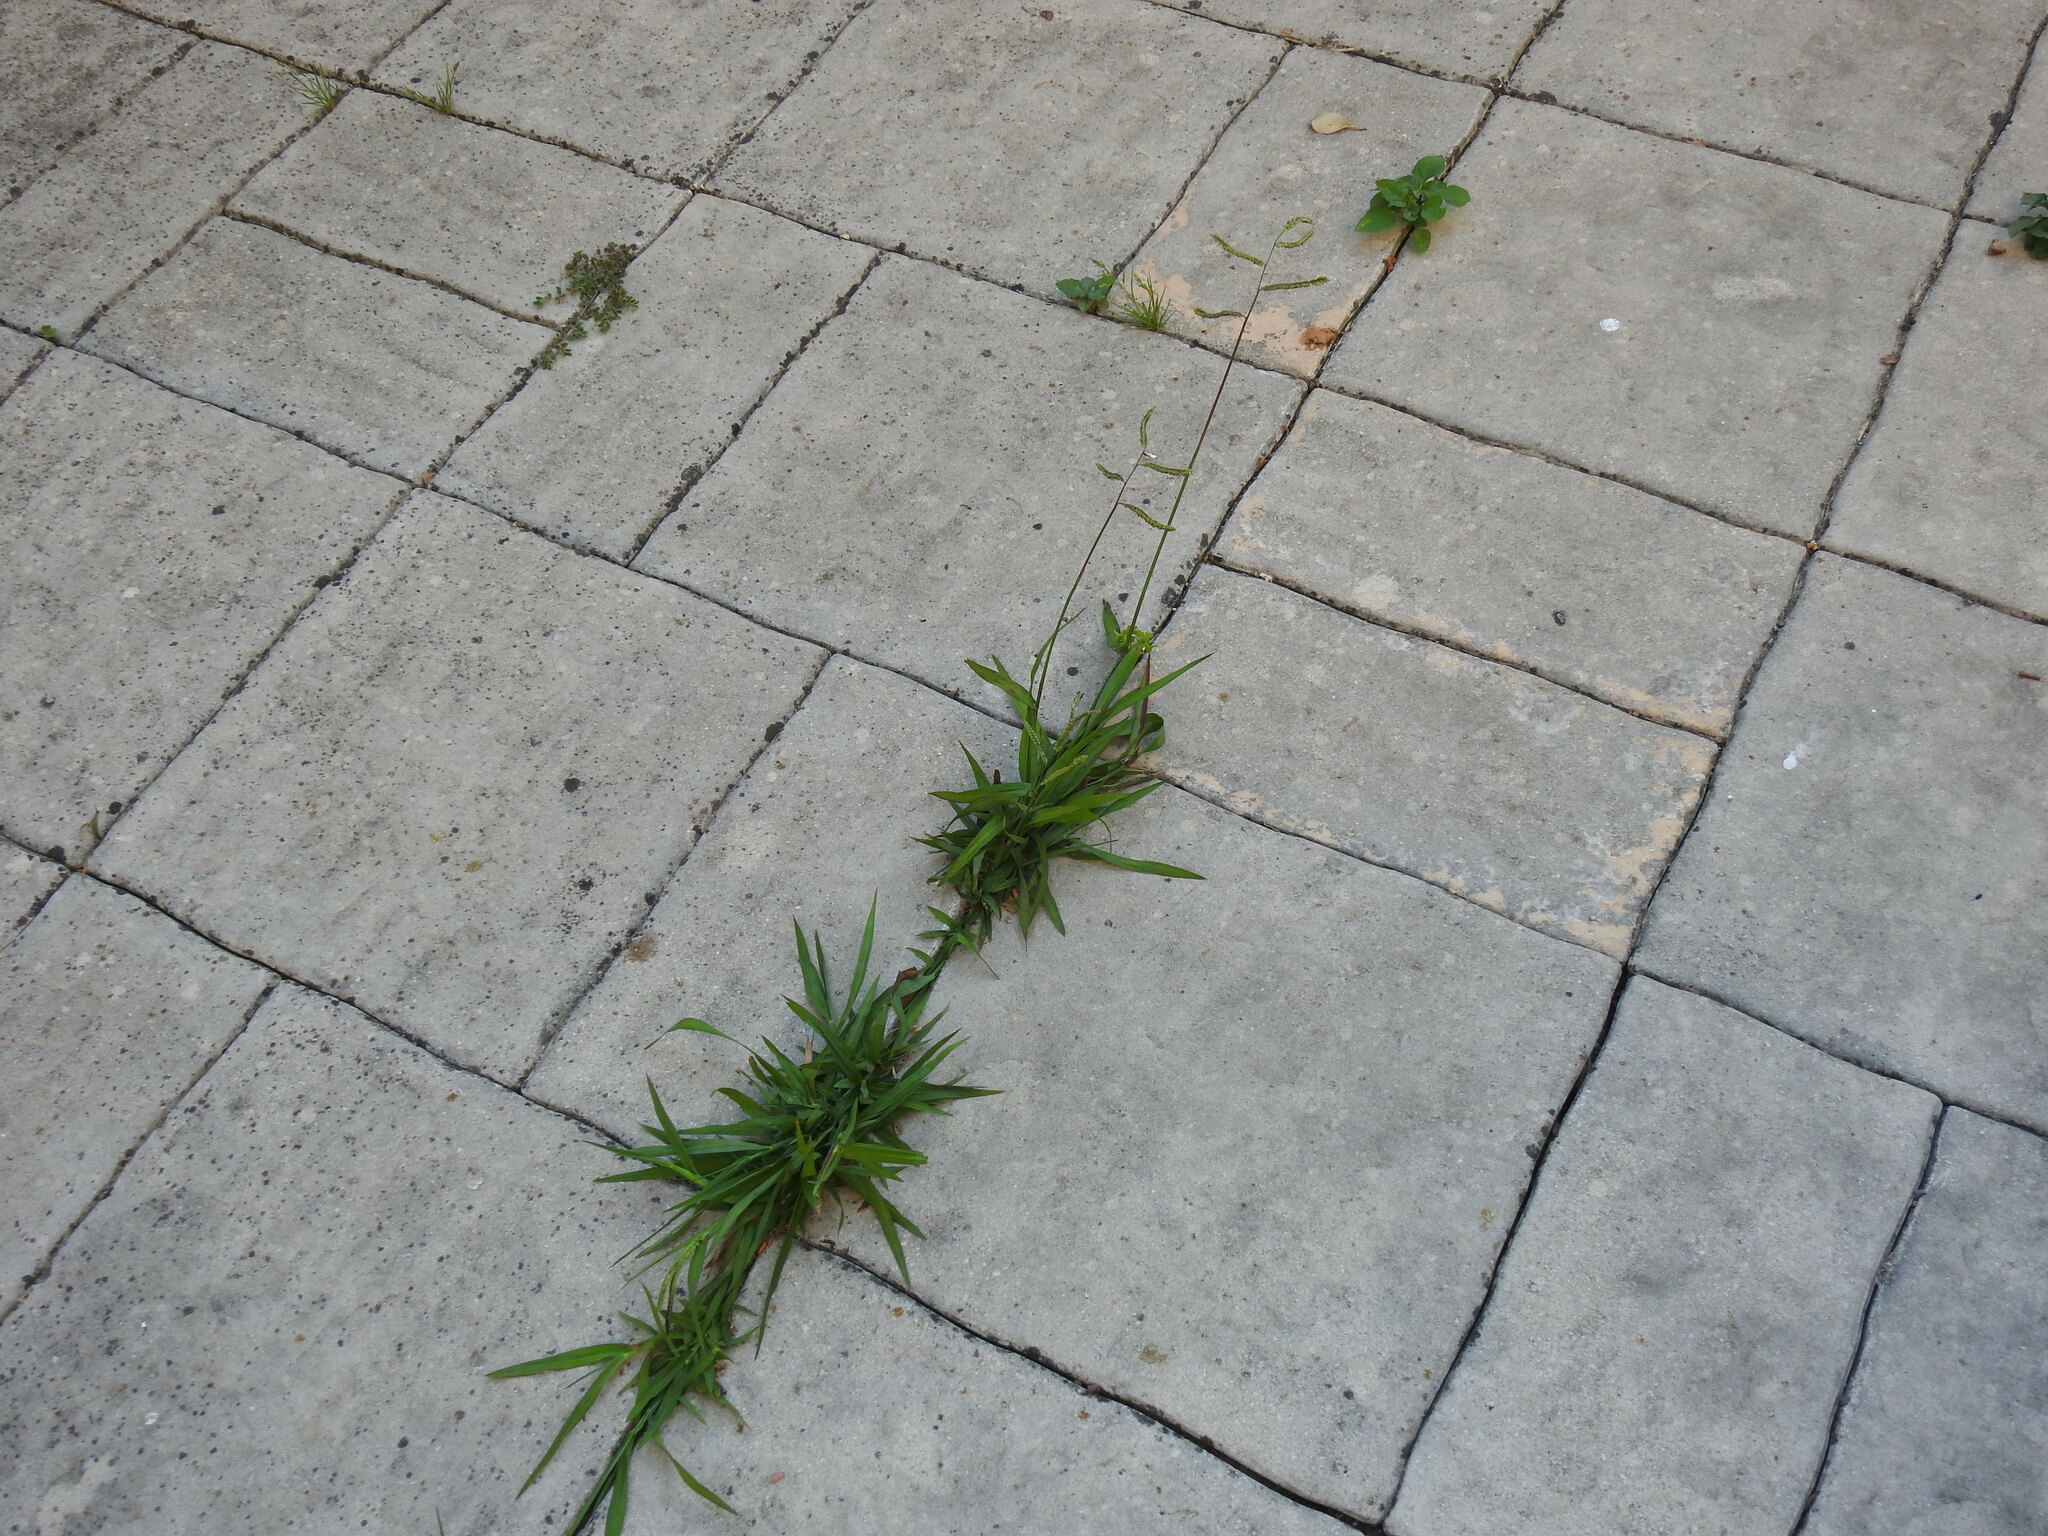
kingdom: Plantae
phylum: Tracheophyta
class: Liliopsida
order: Poales
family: Poaceae
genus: Paspalum
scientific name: Paspalum dilatatum
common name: Dallisgrass
